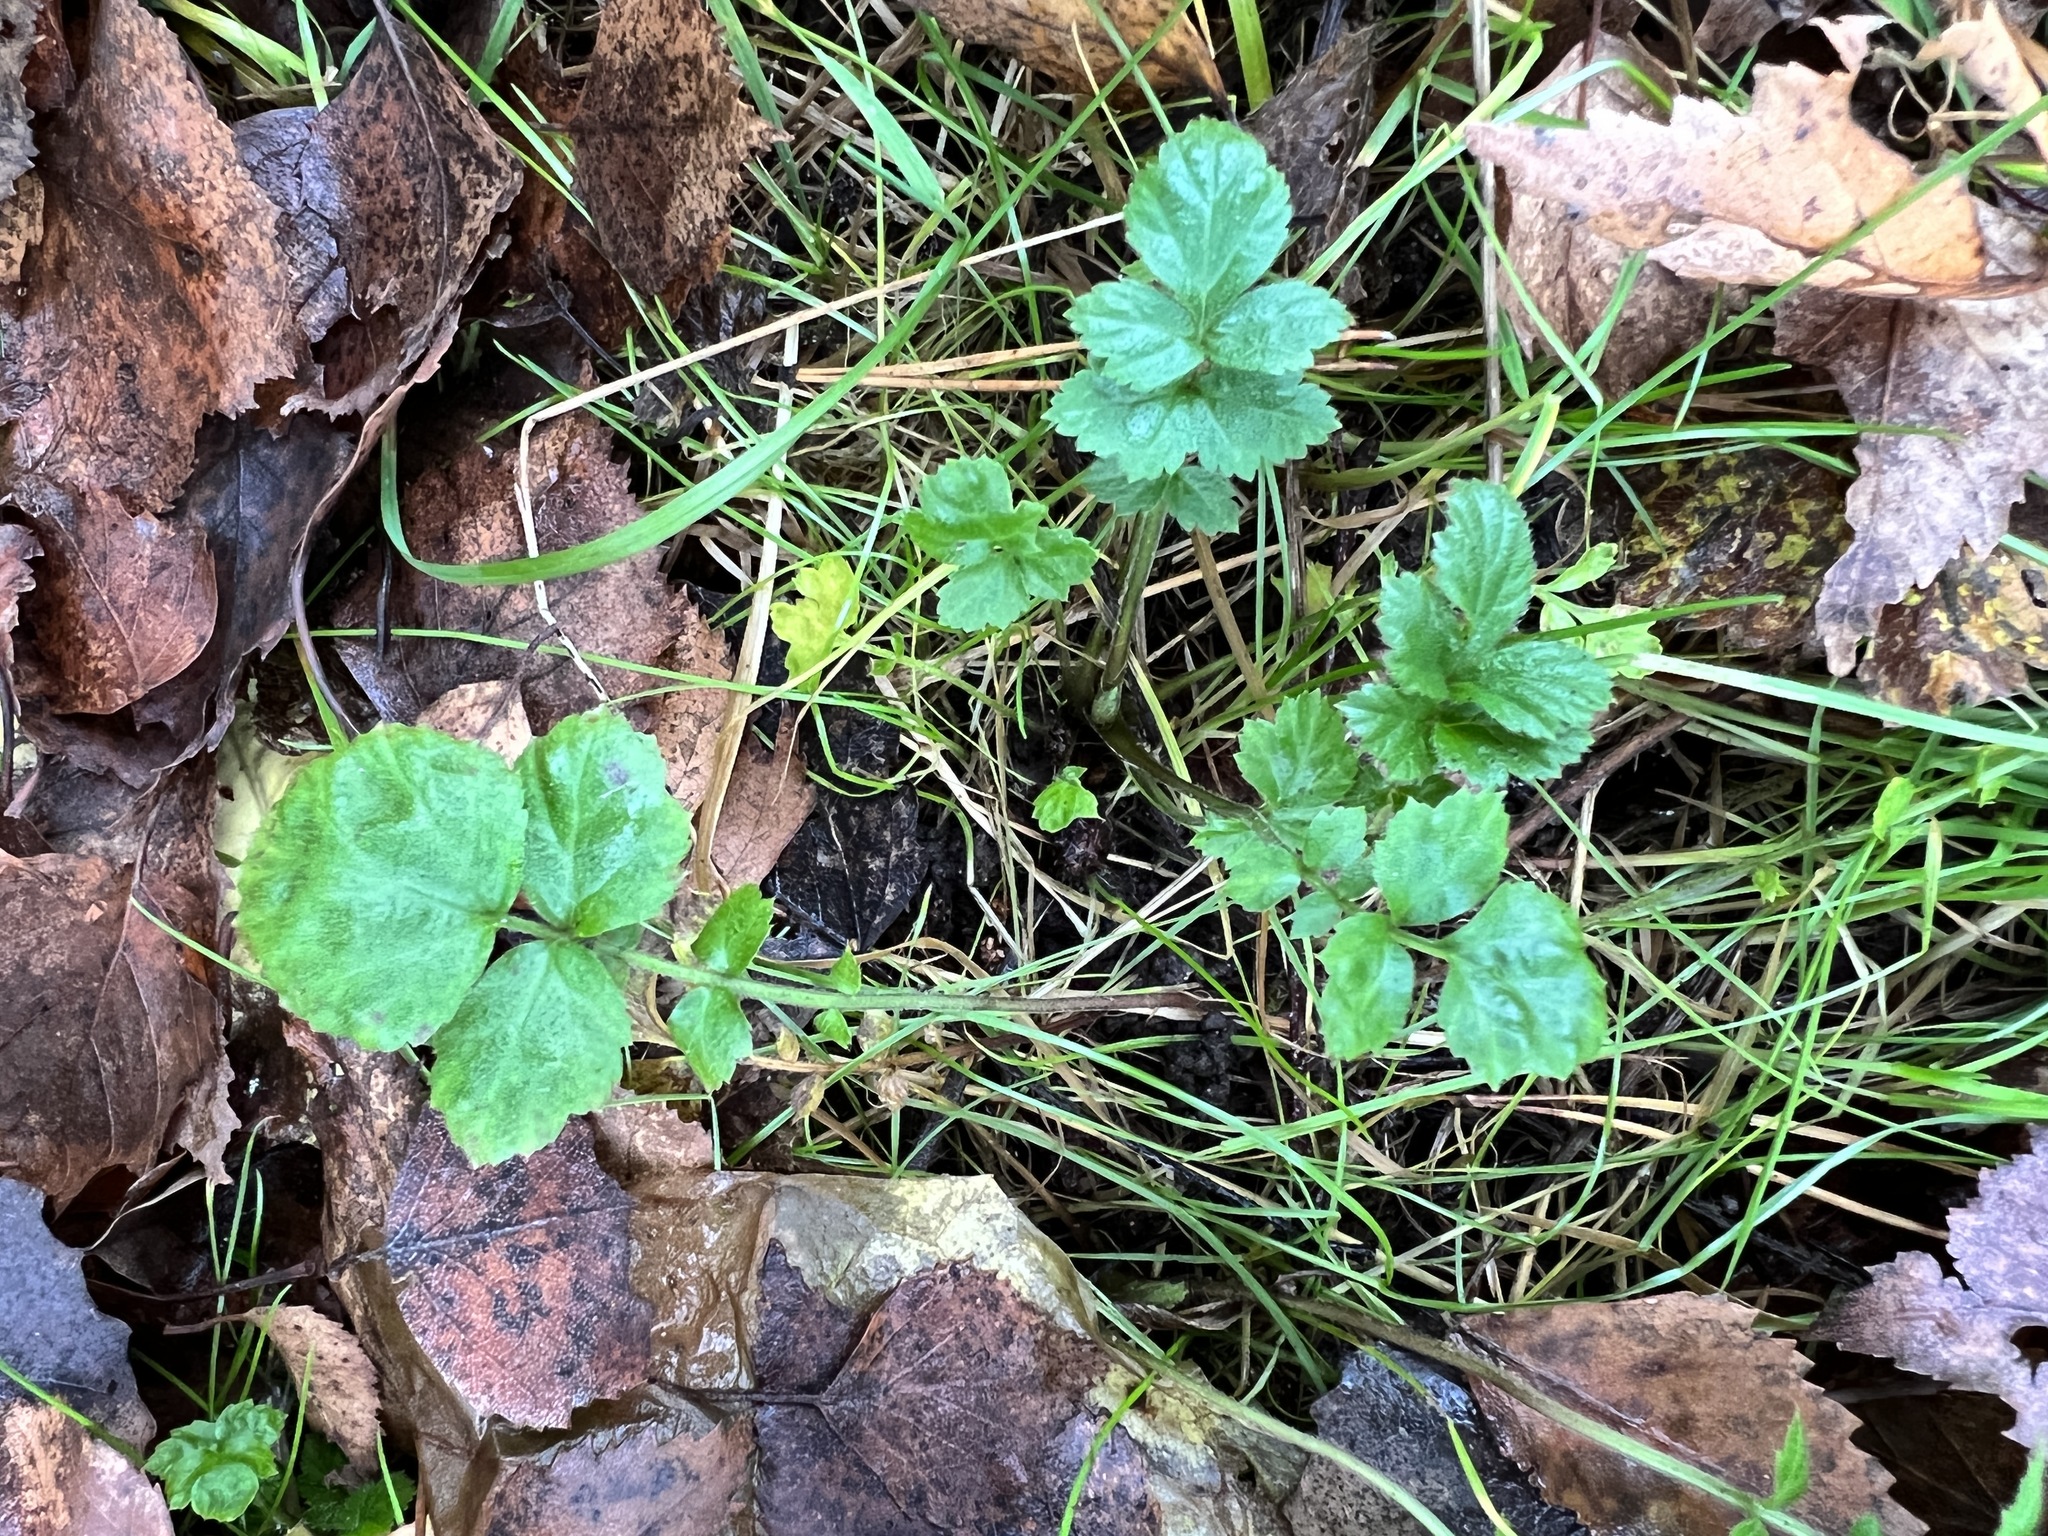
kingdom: Plantae
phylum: Tracheophyta
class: Magnoliopsida
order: Rosales
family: Rosaceae
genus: Geum
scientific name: Geum
